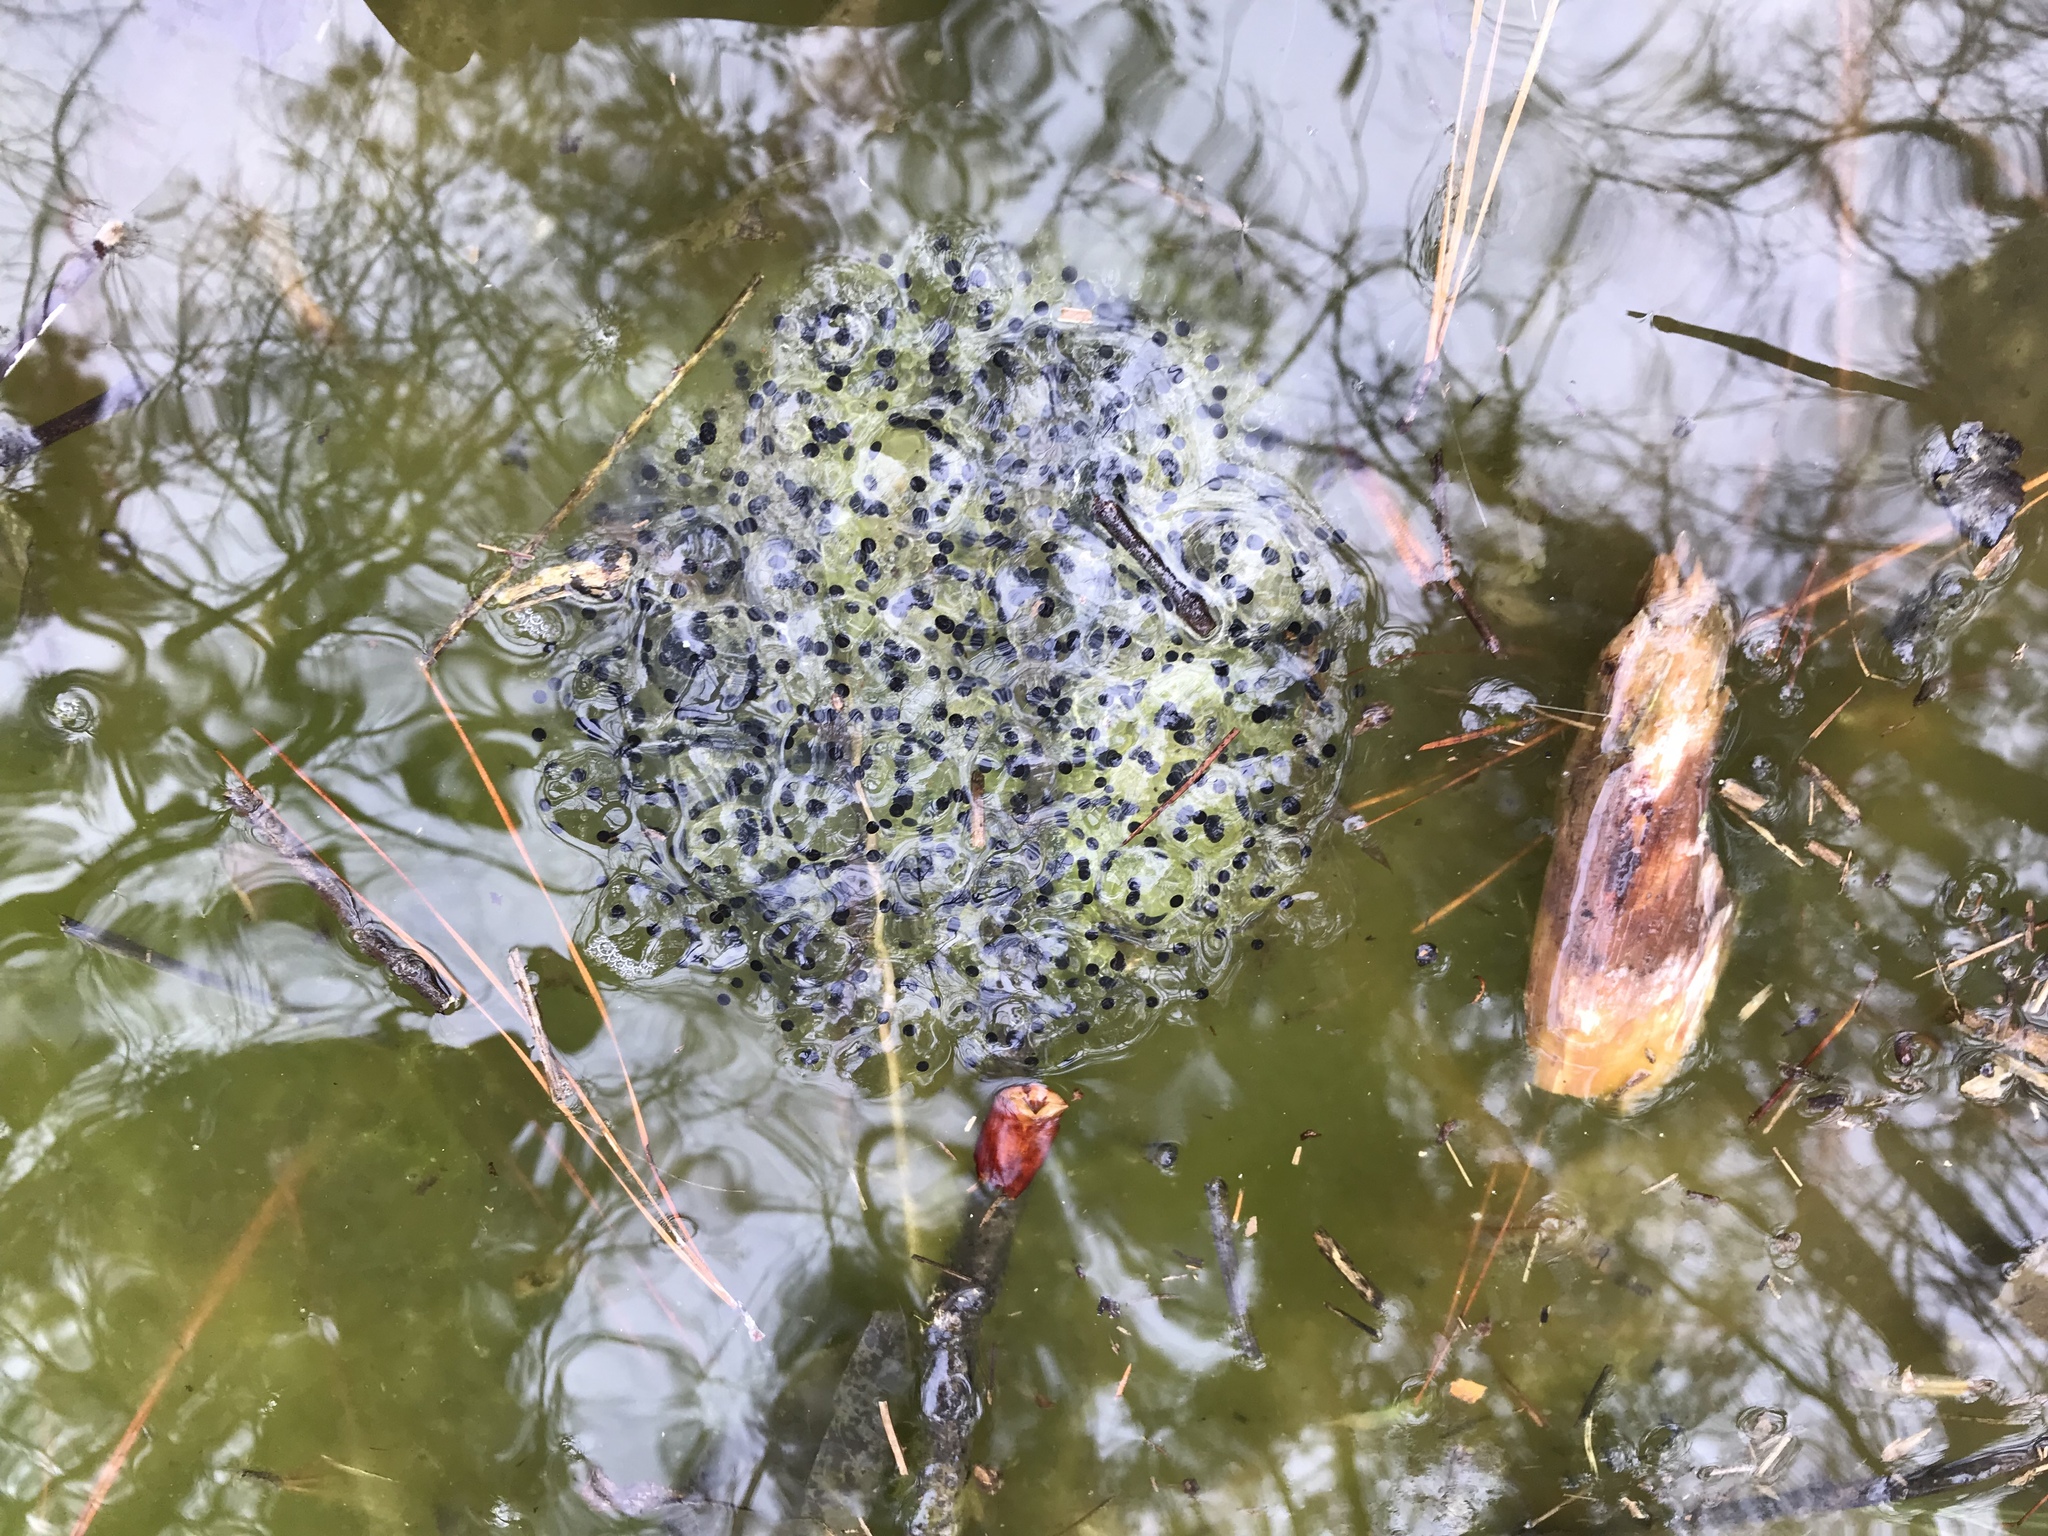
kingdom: Animalia
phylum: Chordata
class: Amphibia
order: Anura
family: Ranidae
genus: Lithobates
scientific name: Lithobates sylvaticus
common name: Wood frog
